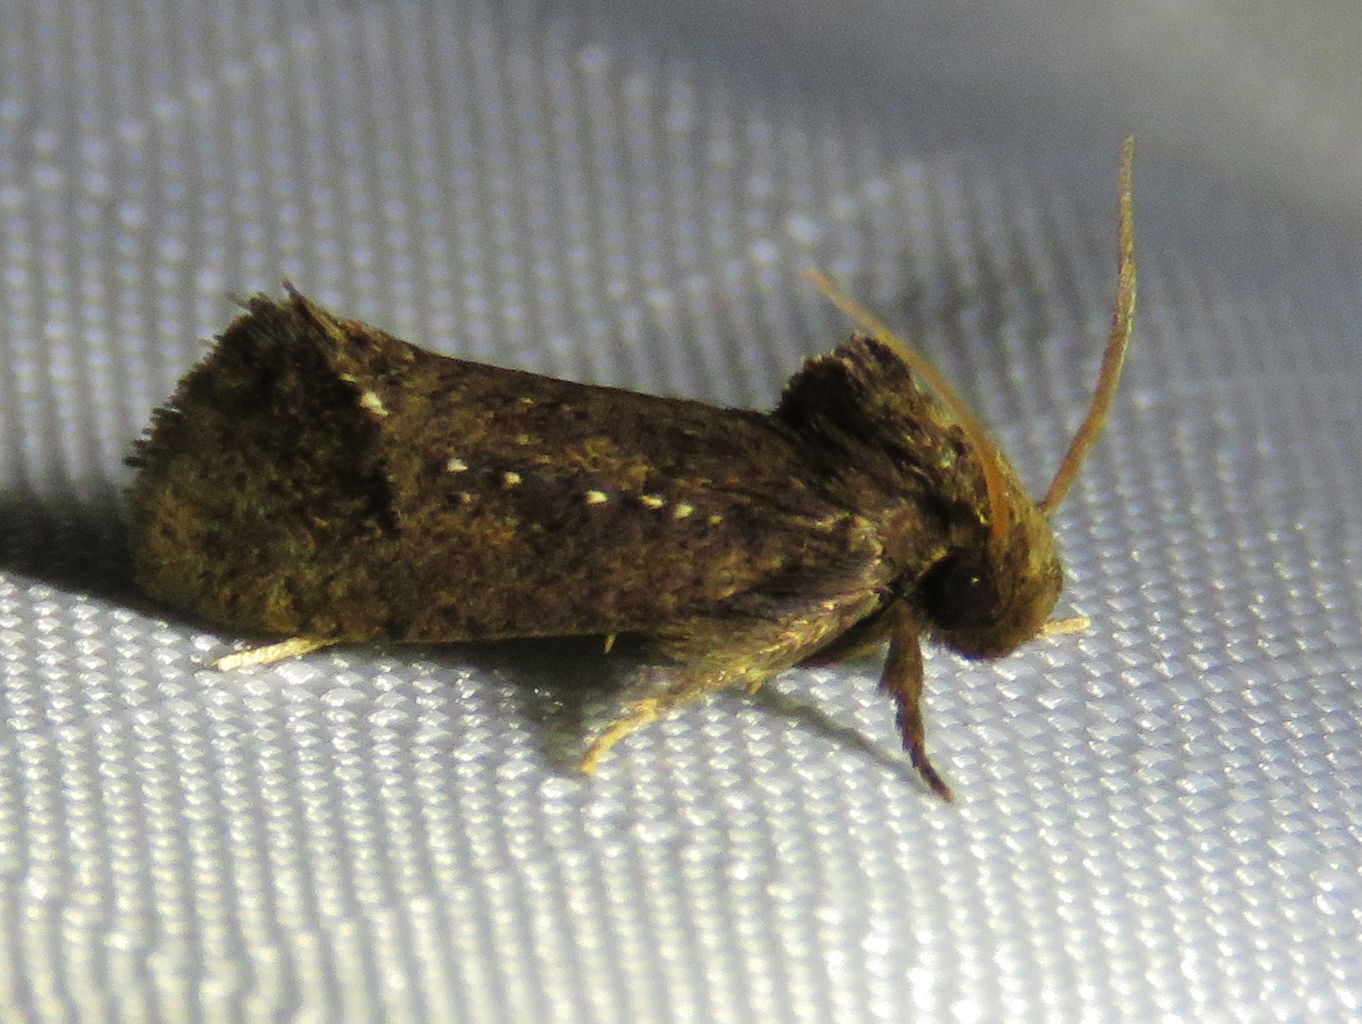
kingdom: Animalia
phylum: Arthropoda
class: Insecta
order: Lepidoptera
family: Tineidae
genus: Acrolophus
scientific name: Acrolophus texanella
